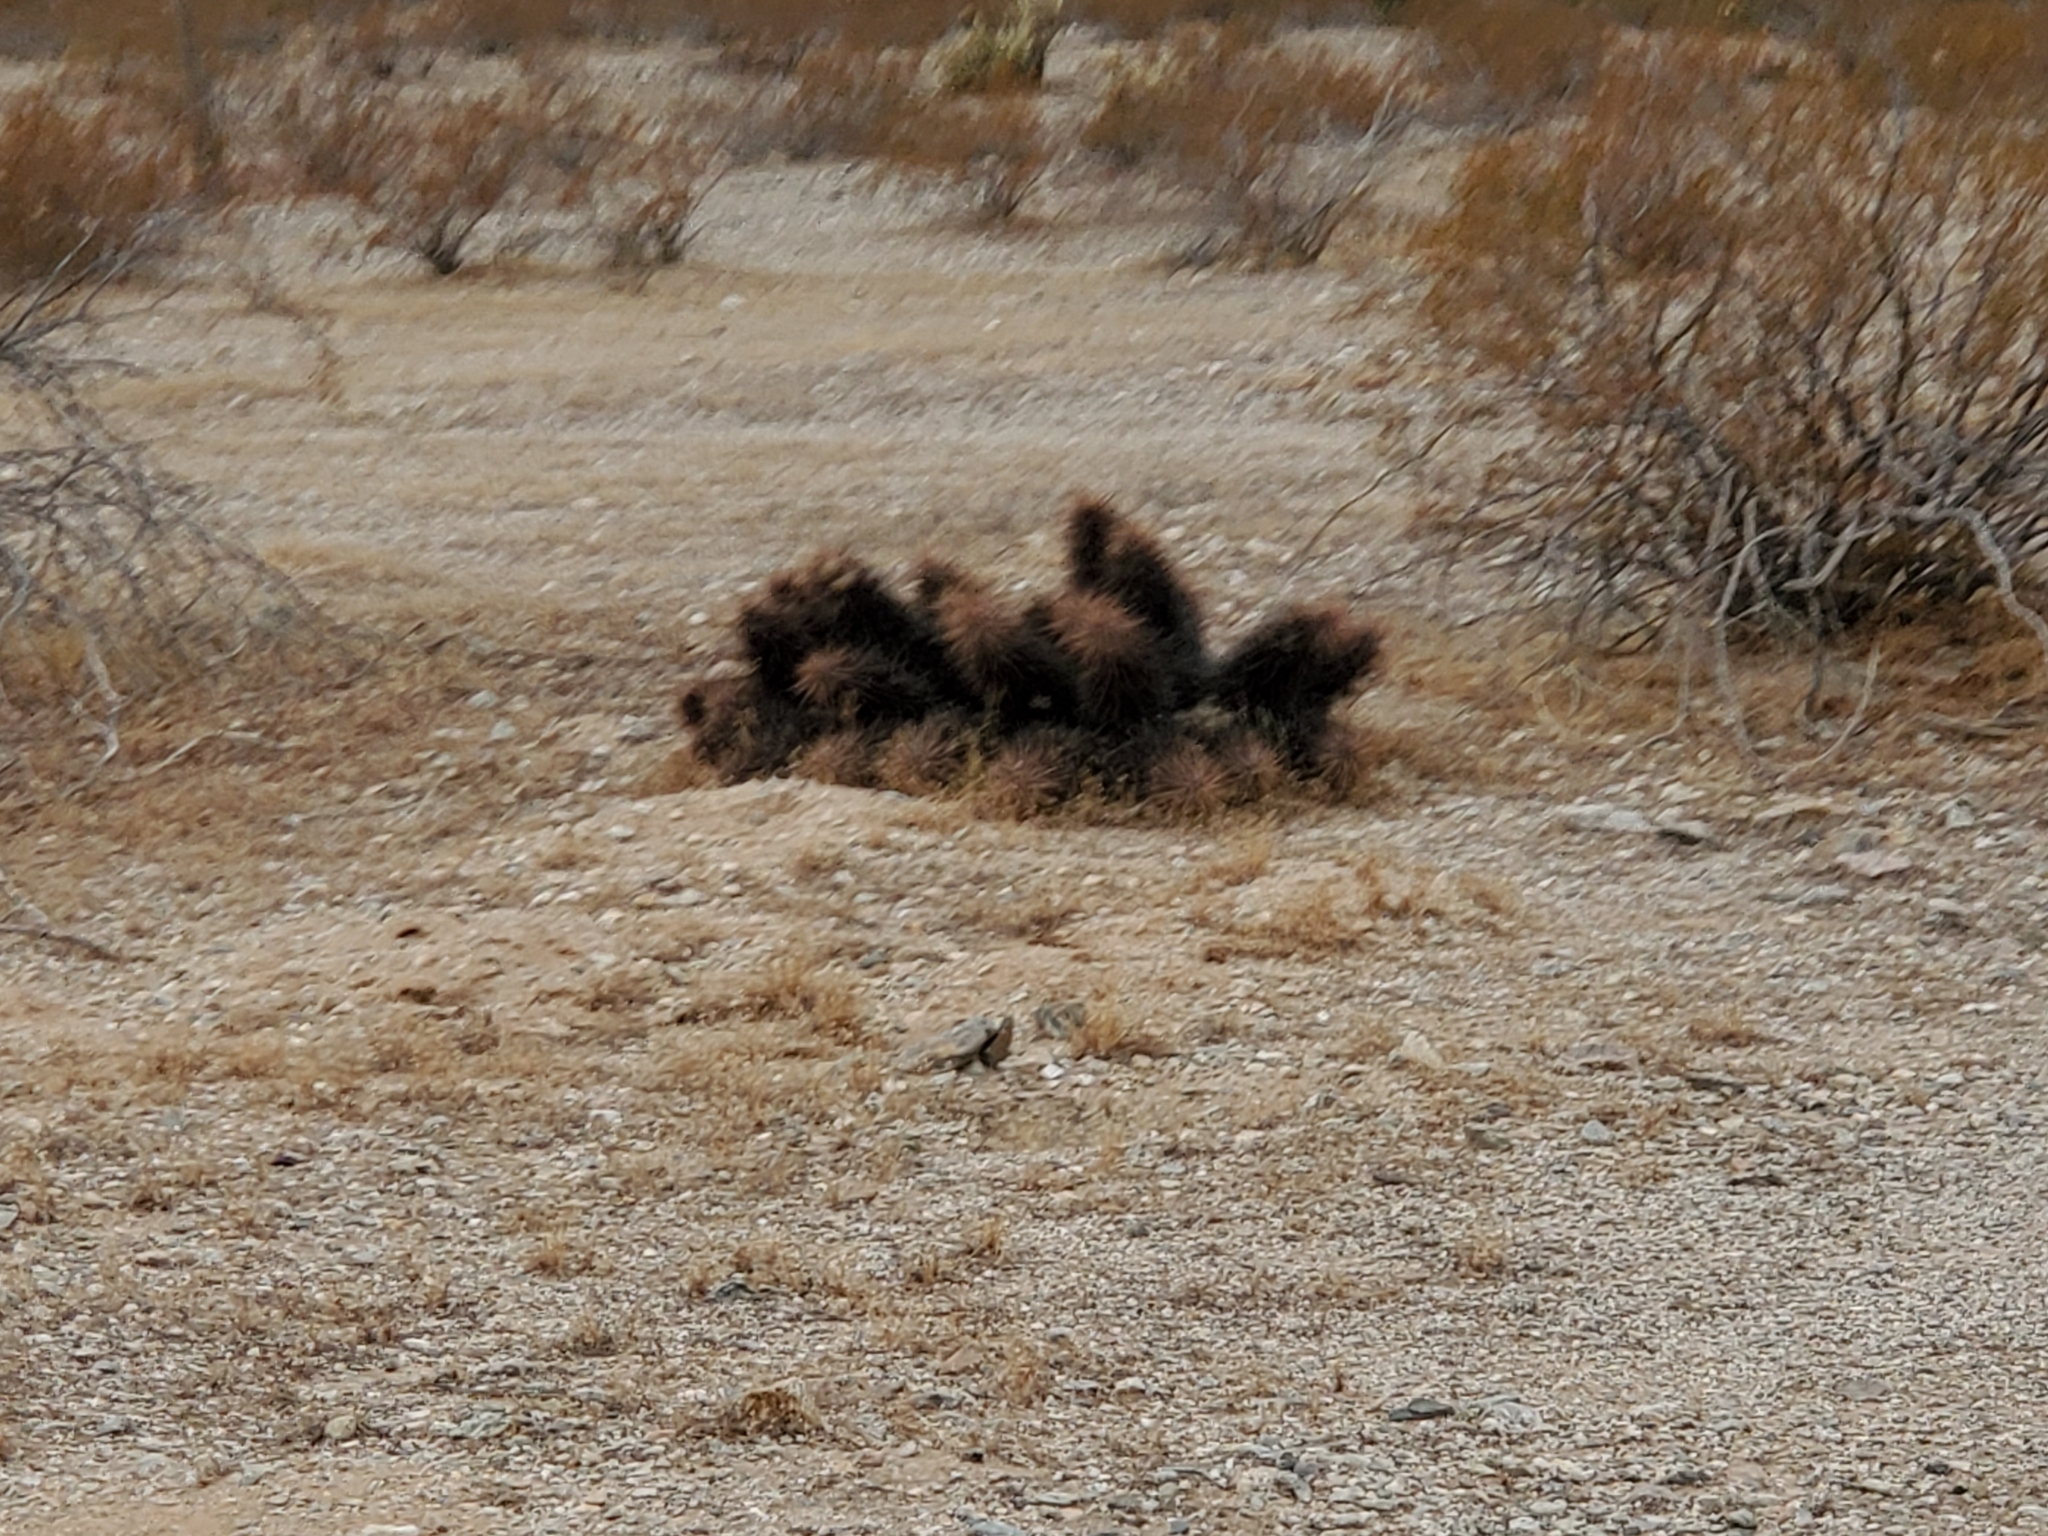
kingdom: Plantae
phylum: Tracheophyta
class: Magnoliopsida
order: Caryophyllales
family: Cactaceae
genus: Echinocereus
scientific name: Echinocereus engelmannii
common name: Engelmann's hedgehog cactus
